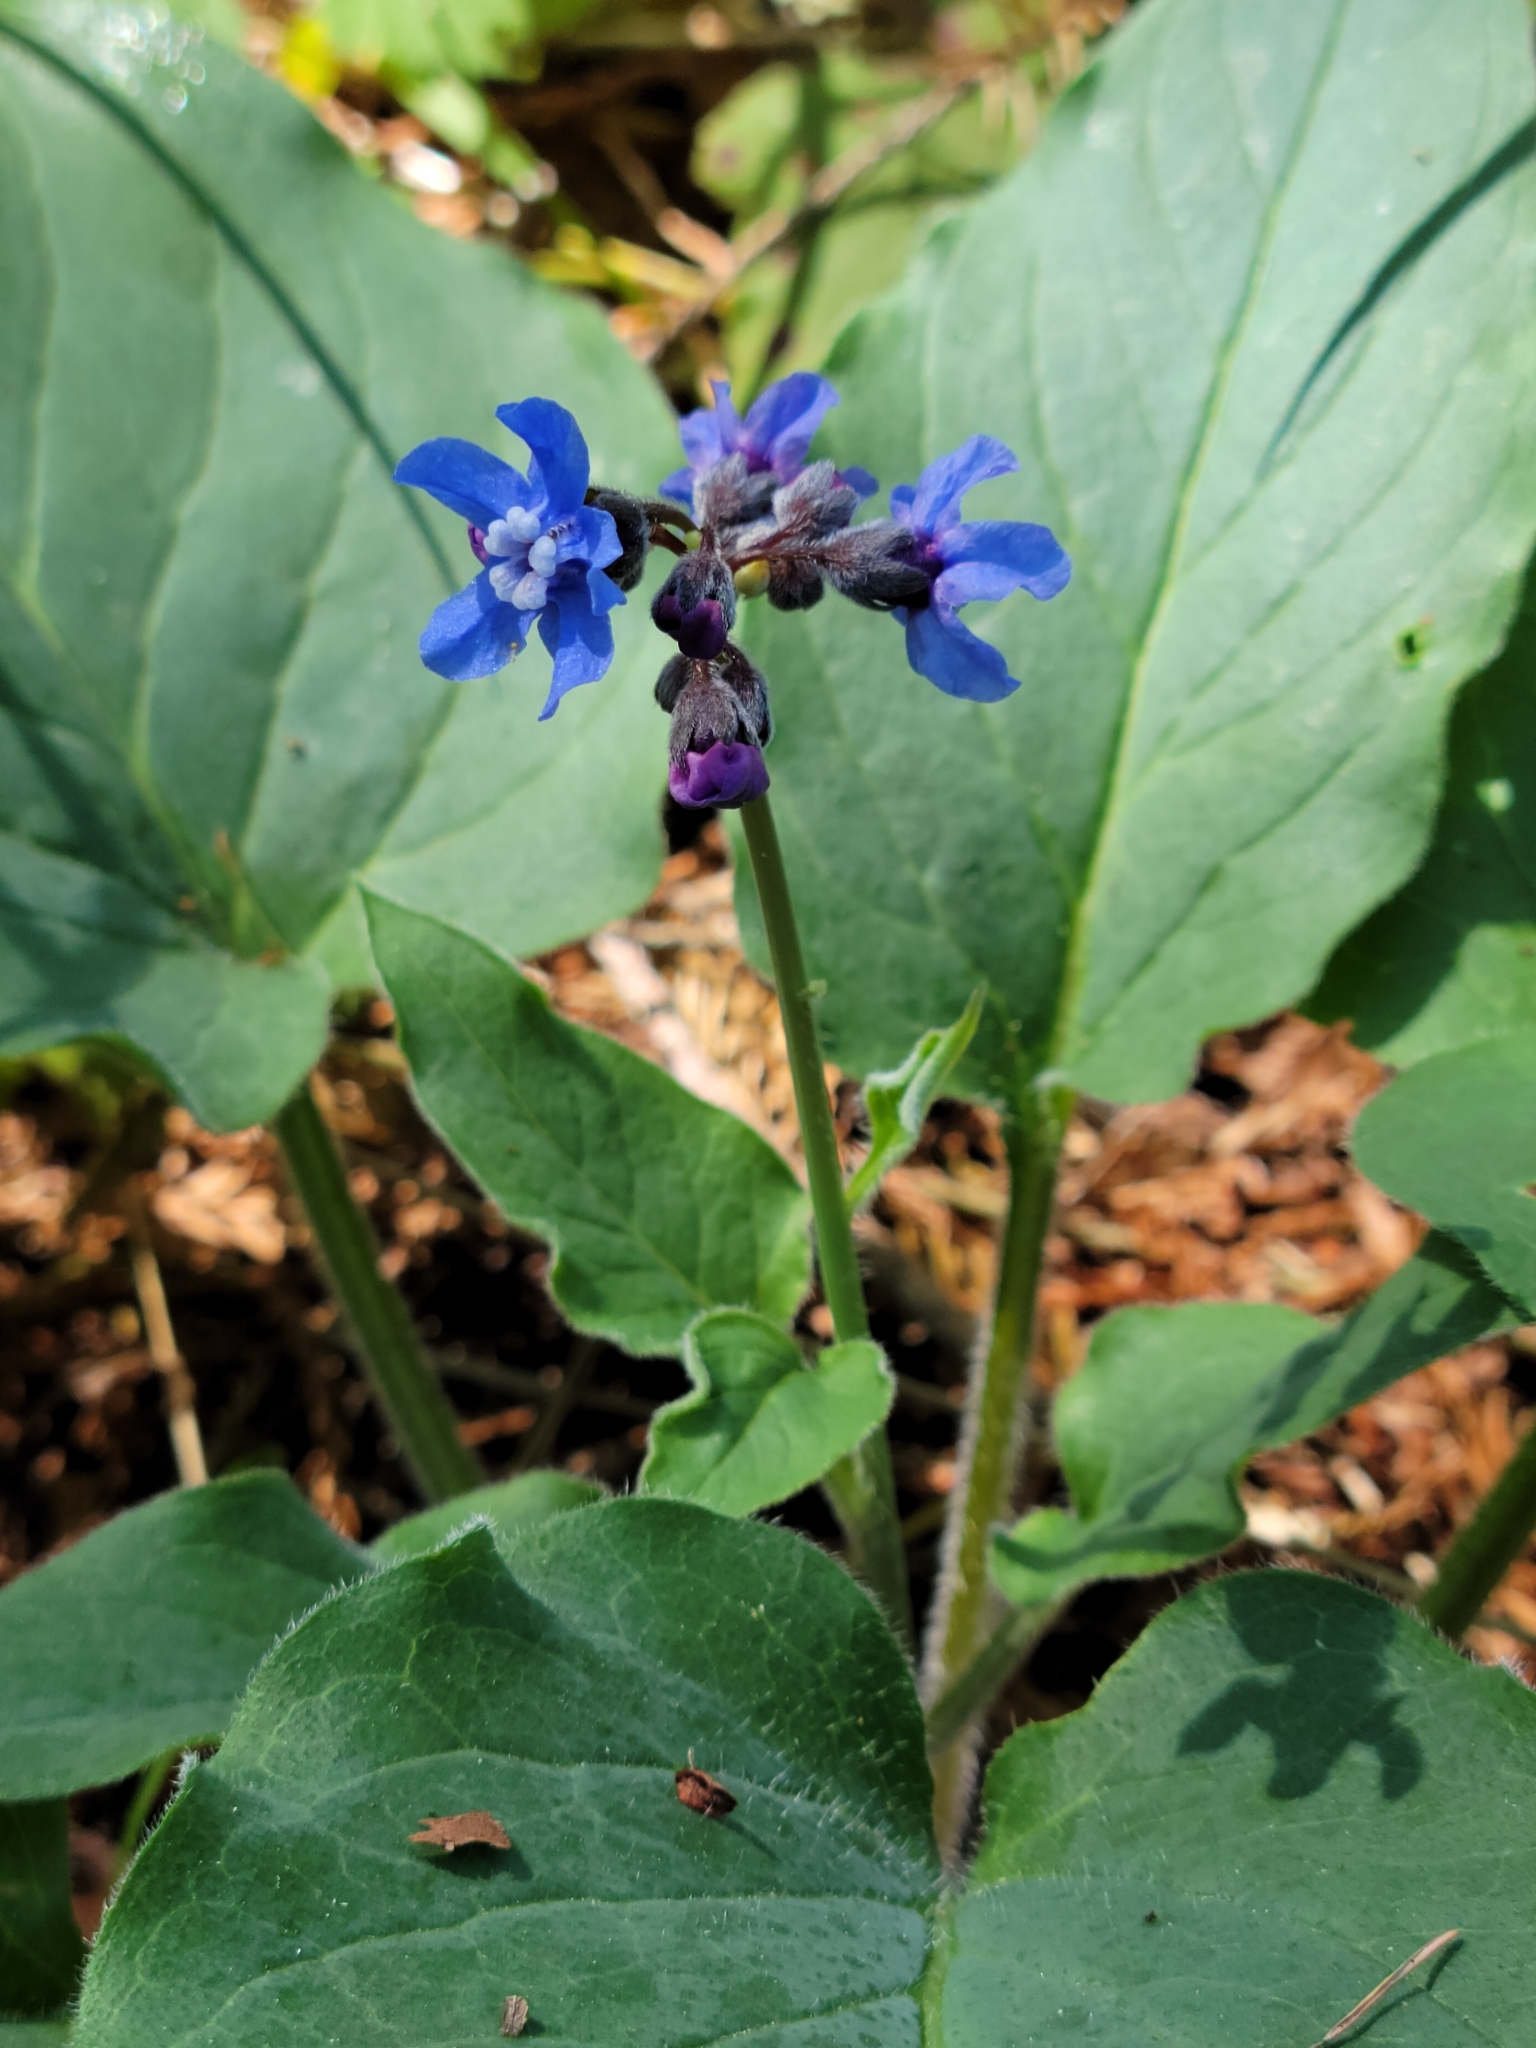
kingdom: Plantae
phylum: Tracheophyta
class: Magnoliopsida
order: Boraginales
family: Boraginaceae
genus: Adelinia
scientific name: Adelinia grande
